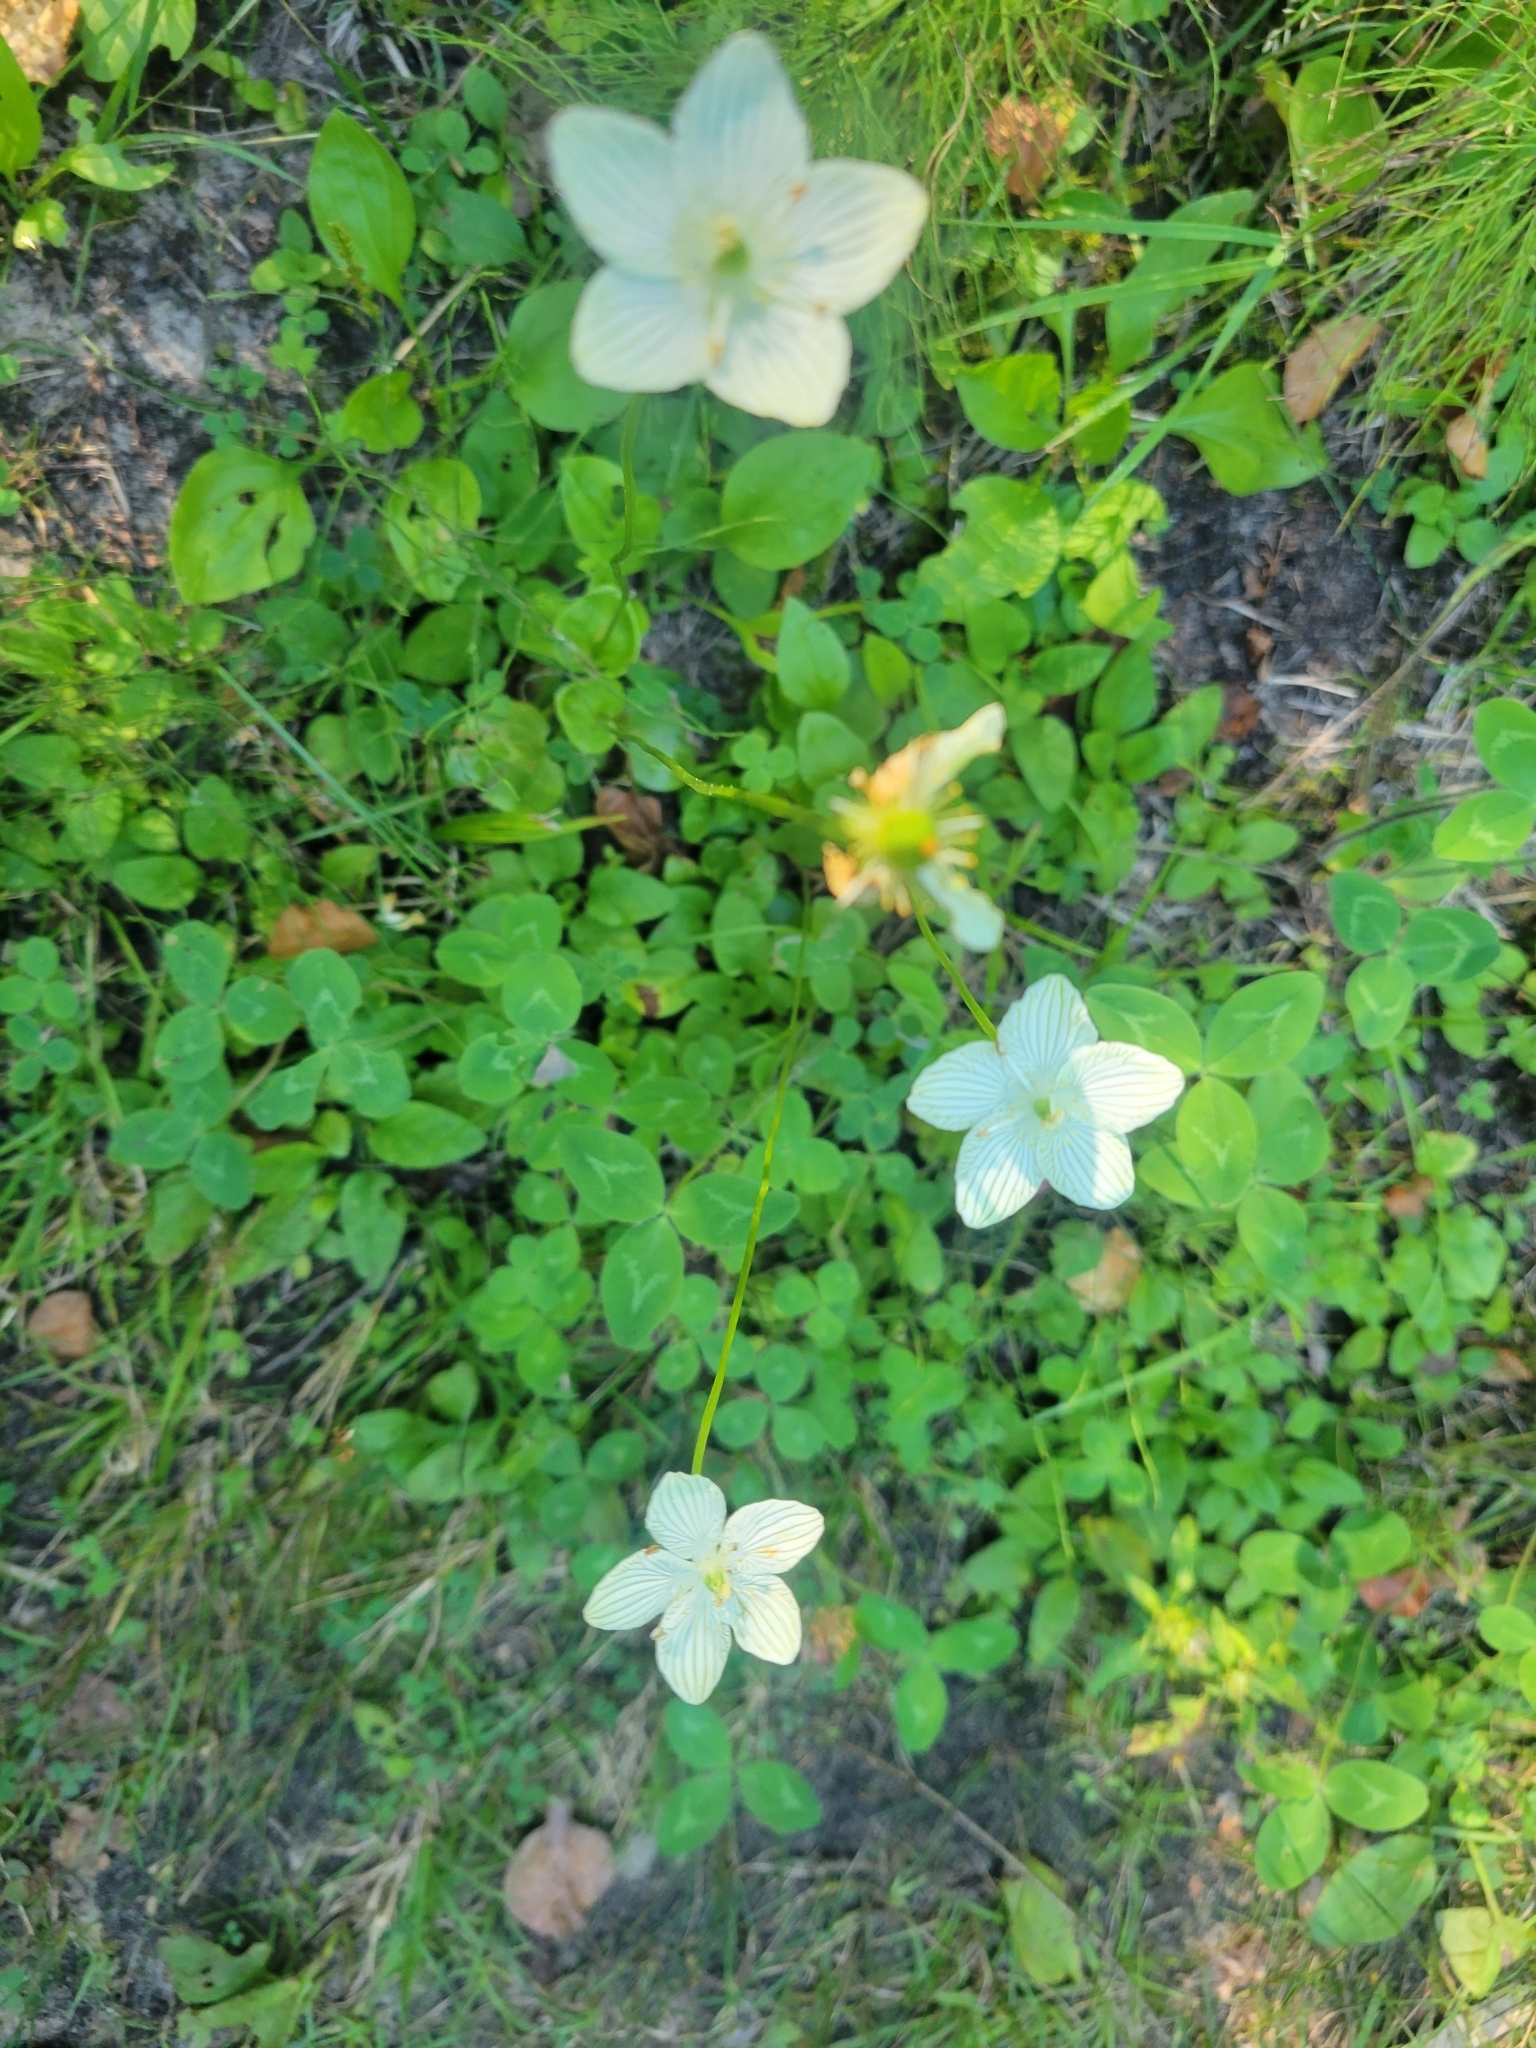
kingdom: Plantae
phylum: Tracheophyta
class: Magnoliopsida
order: Celastrales
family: Parnassiaceae
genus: Parnassia
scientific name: Parnassia glauca
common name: American grass-of-parnassus
